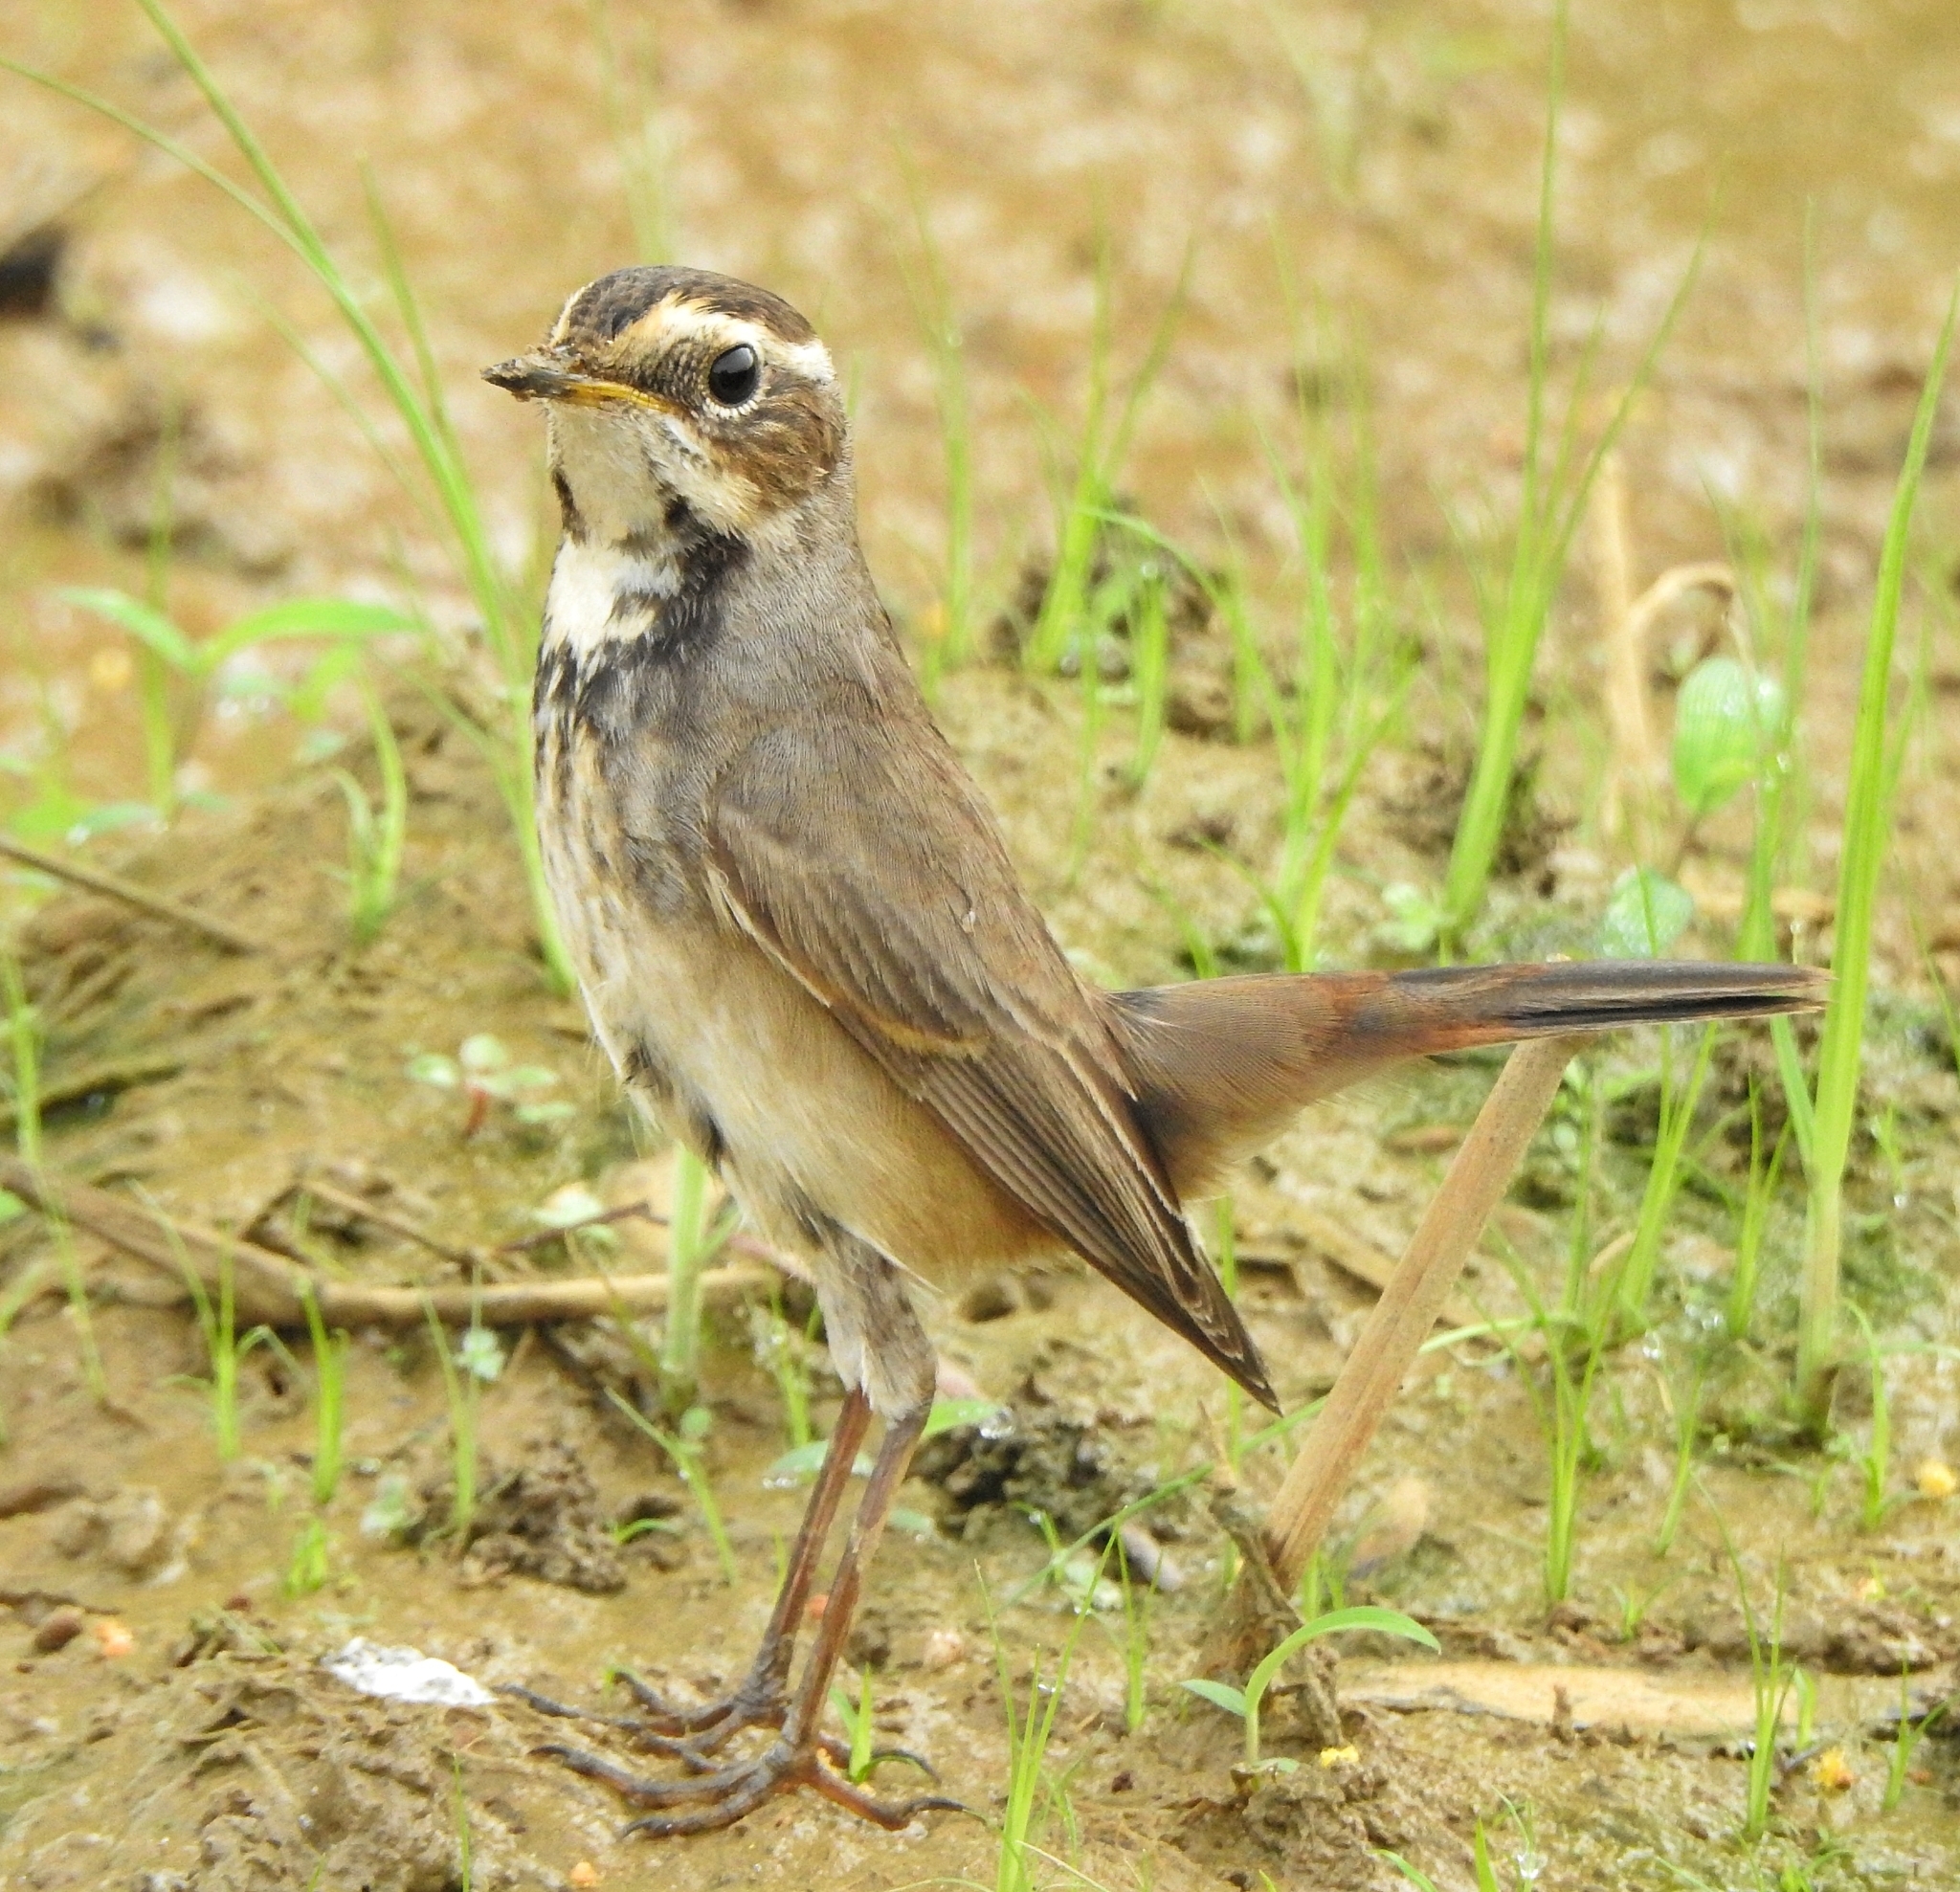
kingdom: Animalia
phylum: Chordata
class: Aves
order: Passeriformes
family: Muscicapidae
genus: Luscinia
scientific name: Luscinia svecica
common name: Bluethroat
